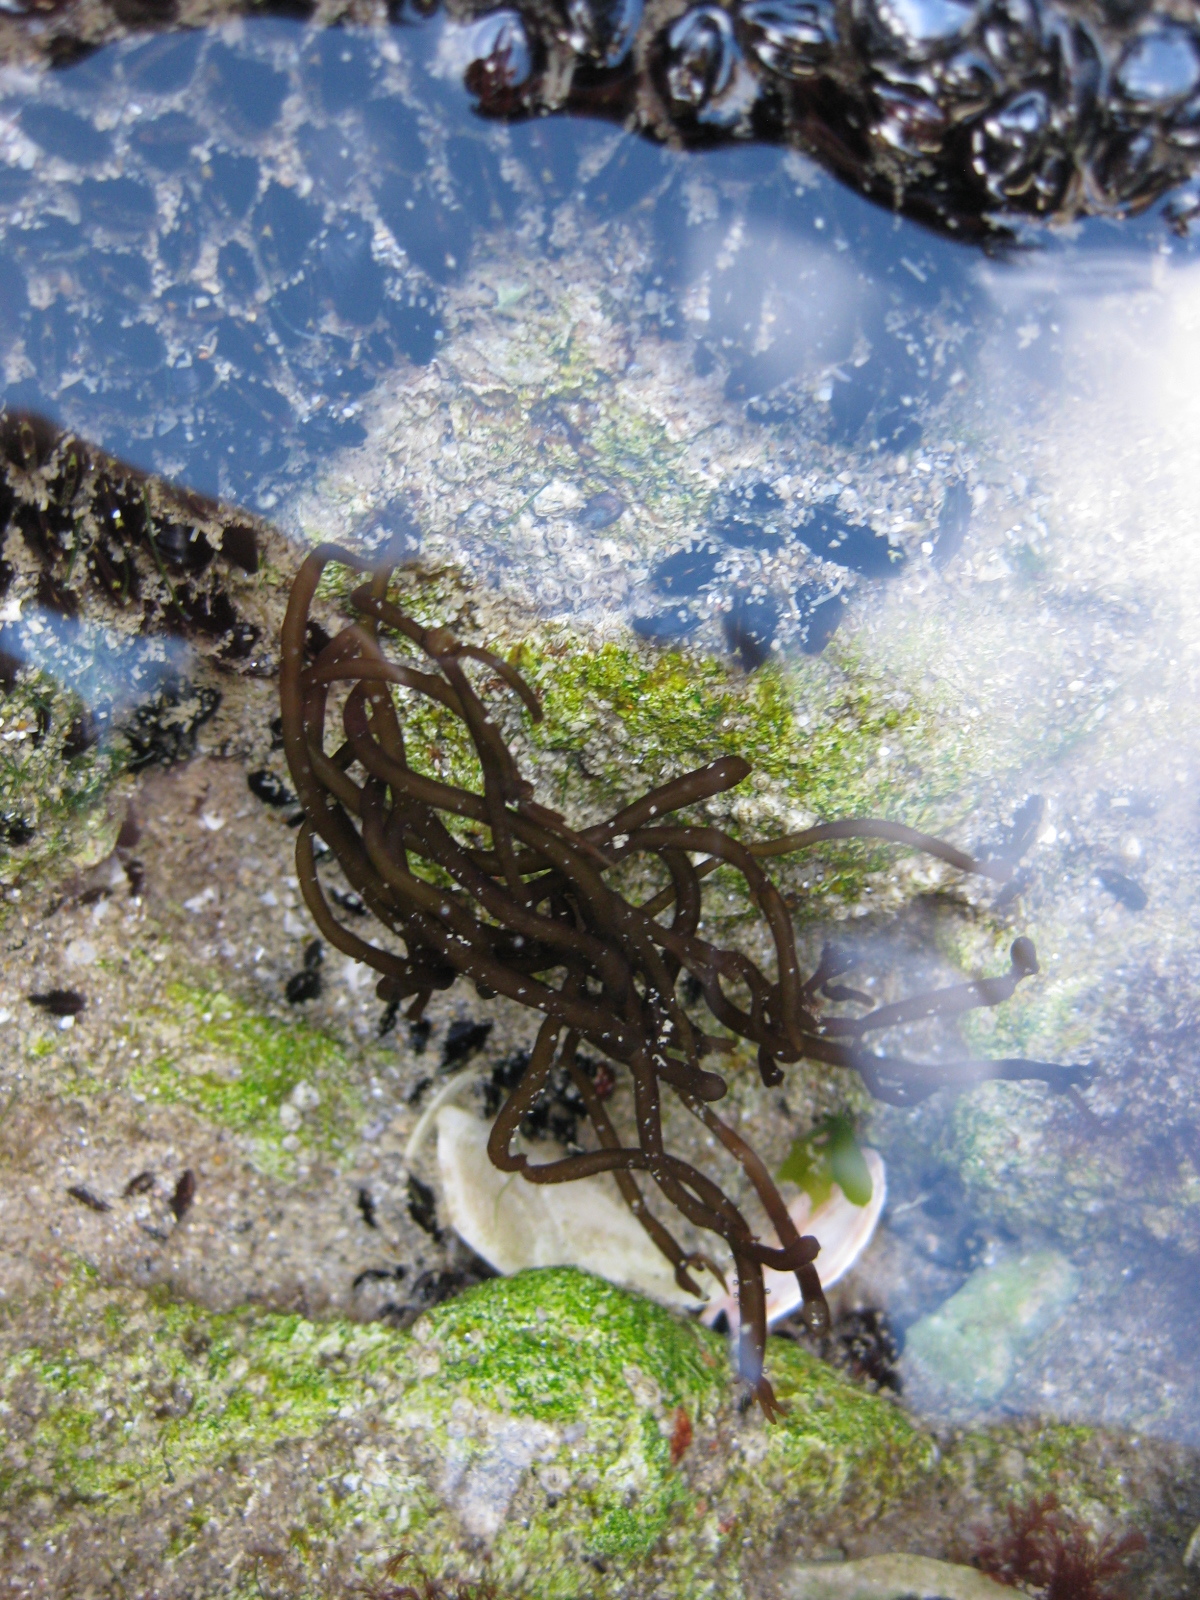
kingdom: Chromista
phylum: Ochrophyta
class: Phaeophyceae
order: Ectocarpales
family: Chordariaceae
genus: Tinocladia
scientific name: Tinocladia novae-zelandiae
